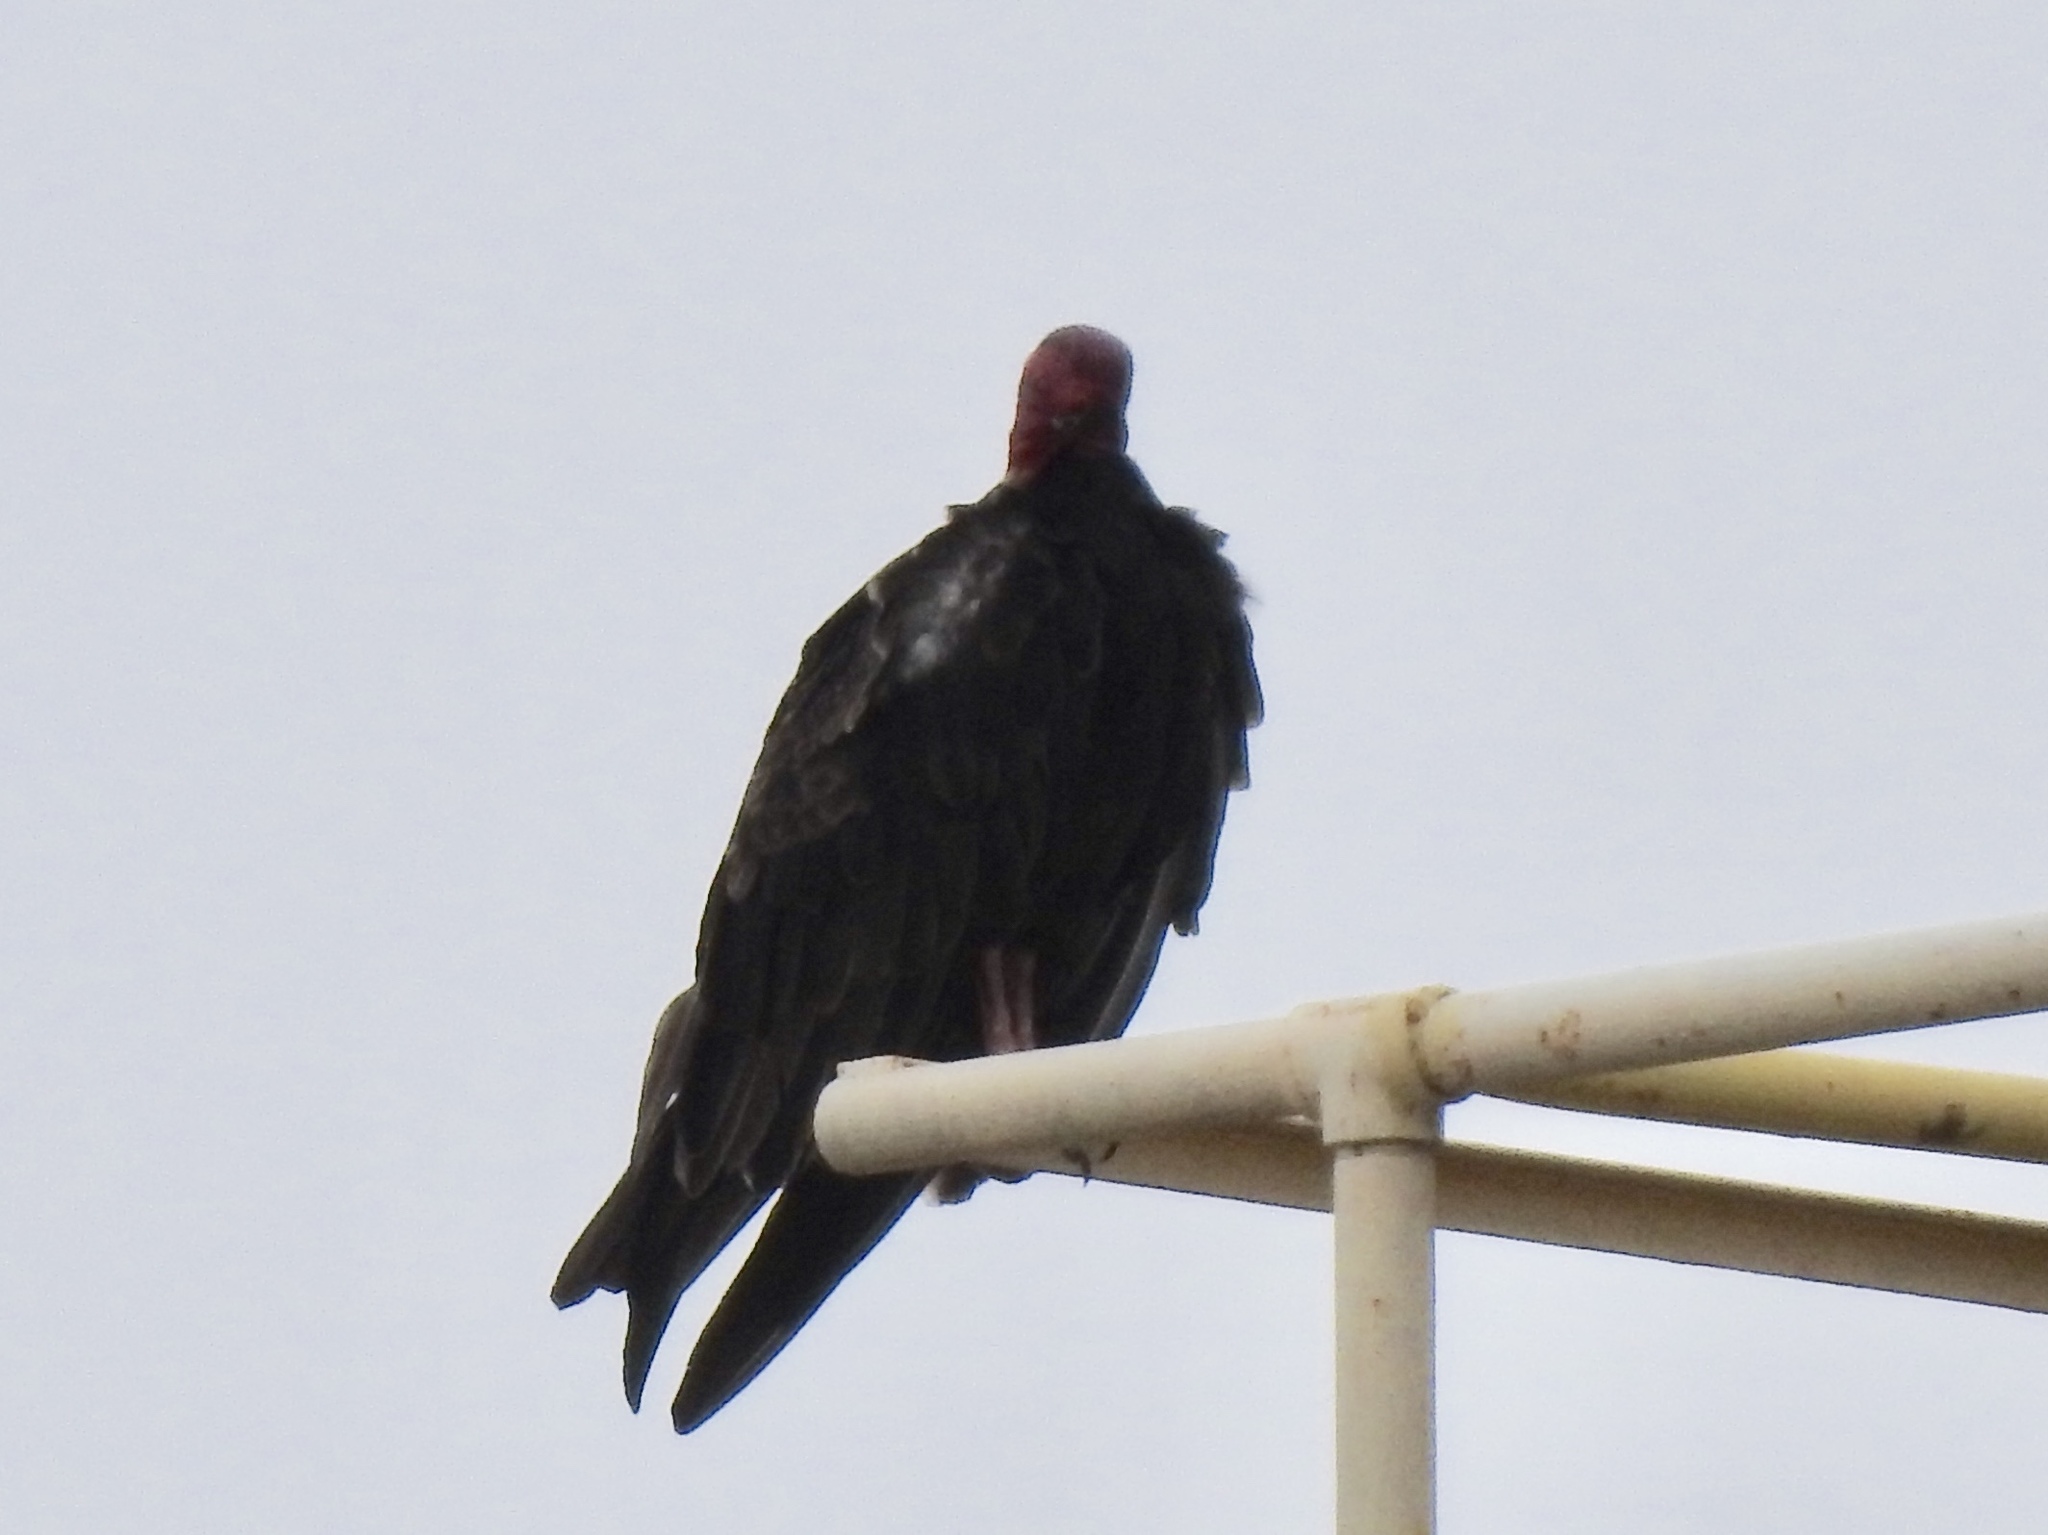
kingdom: Animalia
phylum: Chordata
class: Aves
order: Accipitriformes
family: Cathartidae
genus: Cathartes
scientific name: Cathartes aura
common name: Turkey vulture
